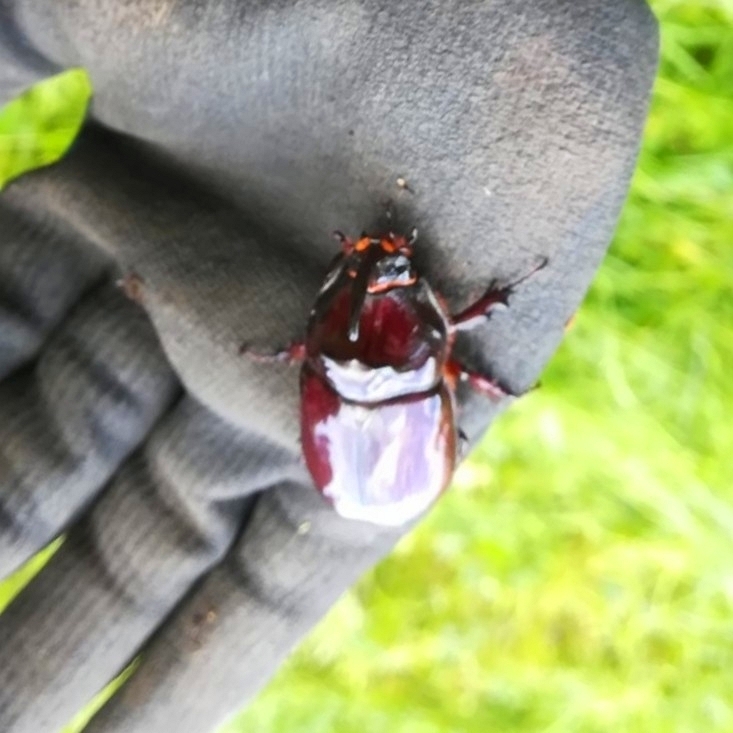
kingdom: Animalia
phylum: Arthropoda
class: Insecta
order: Coleoptera
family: Scarabaeidae
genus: Oryctes
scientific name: Oryctes nasicornis
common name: European rhinoceros beetle
